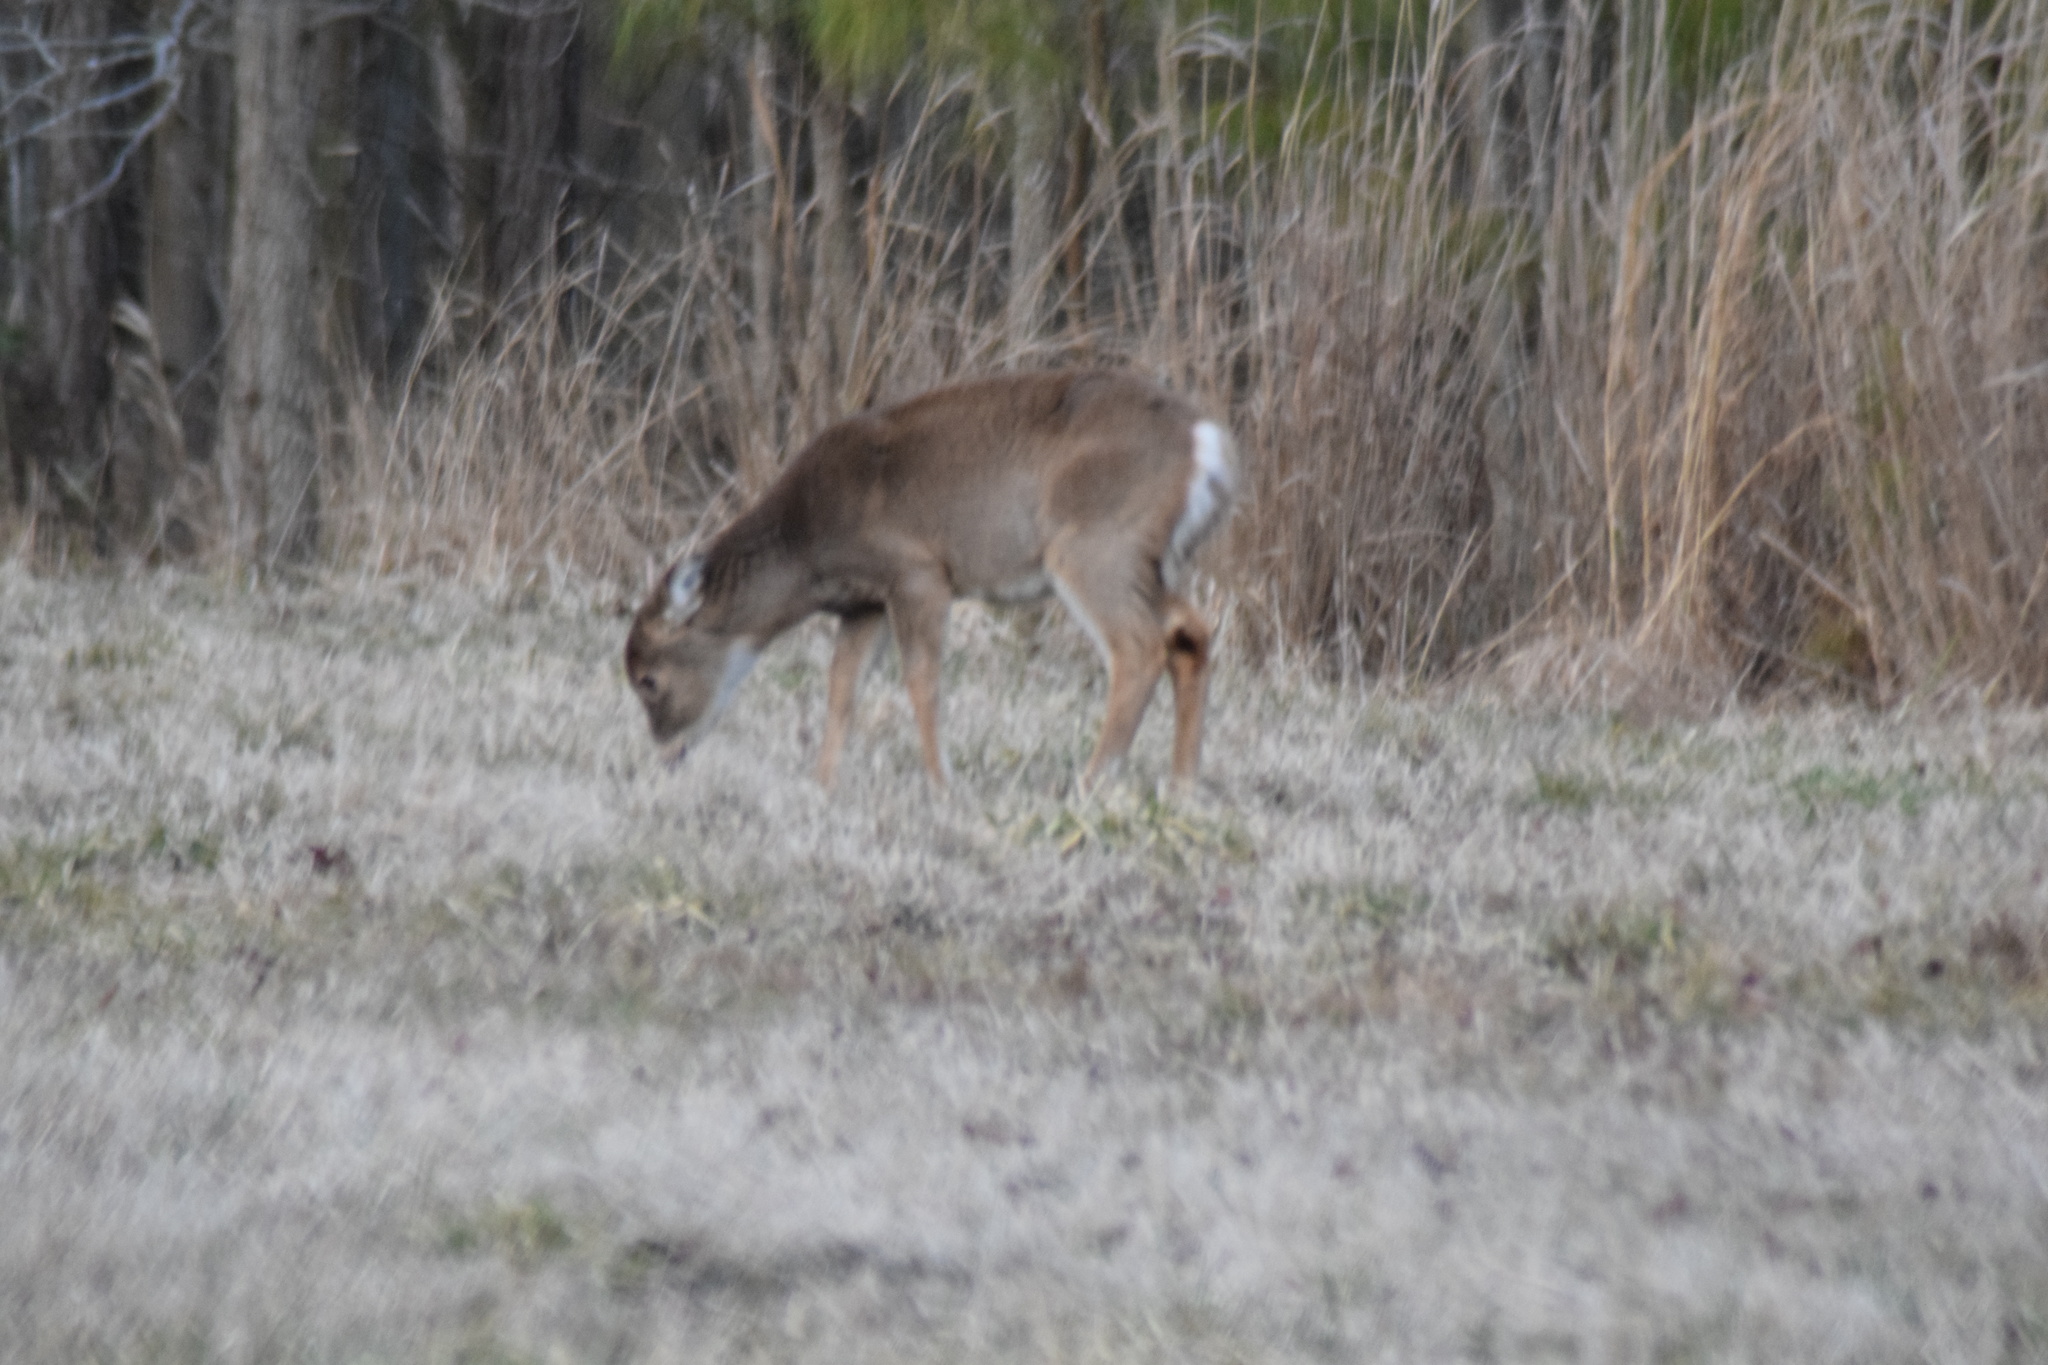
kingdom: Animalia
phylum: Chordata
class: Mammalia
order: Artiodactyla
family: Cervidae
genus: Odocoileus
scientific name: Odocoileus virginianus
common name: White-tailed deer
